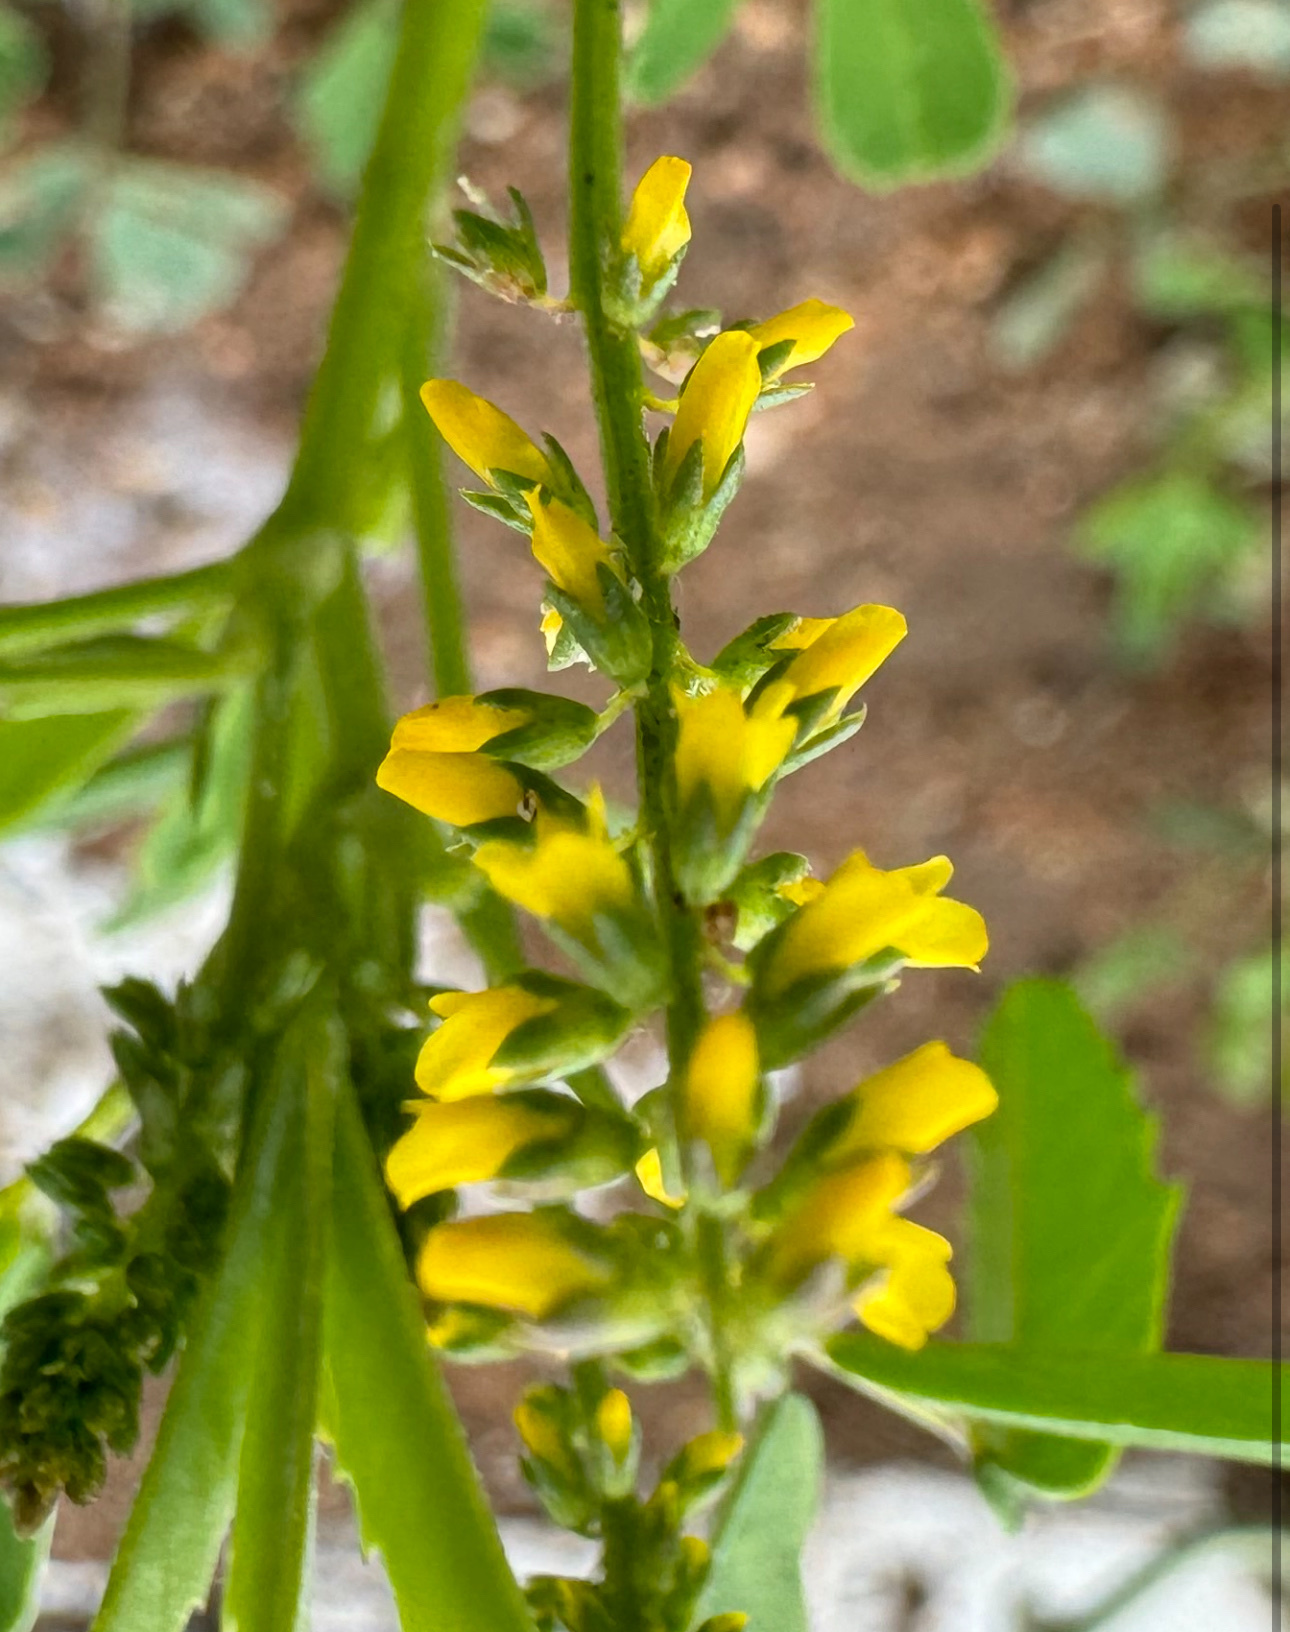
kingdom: Plantae
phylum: Tracheophyta
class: Magnoliopsida
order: Fabales
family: Fabaceae
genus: Melilotus
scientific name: Melilotus indicus
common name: Small melilot
